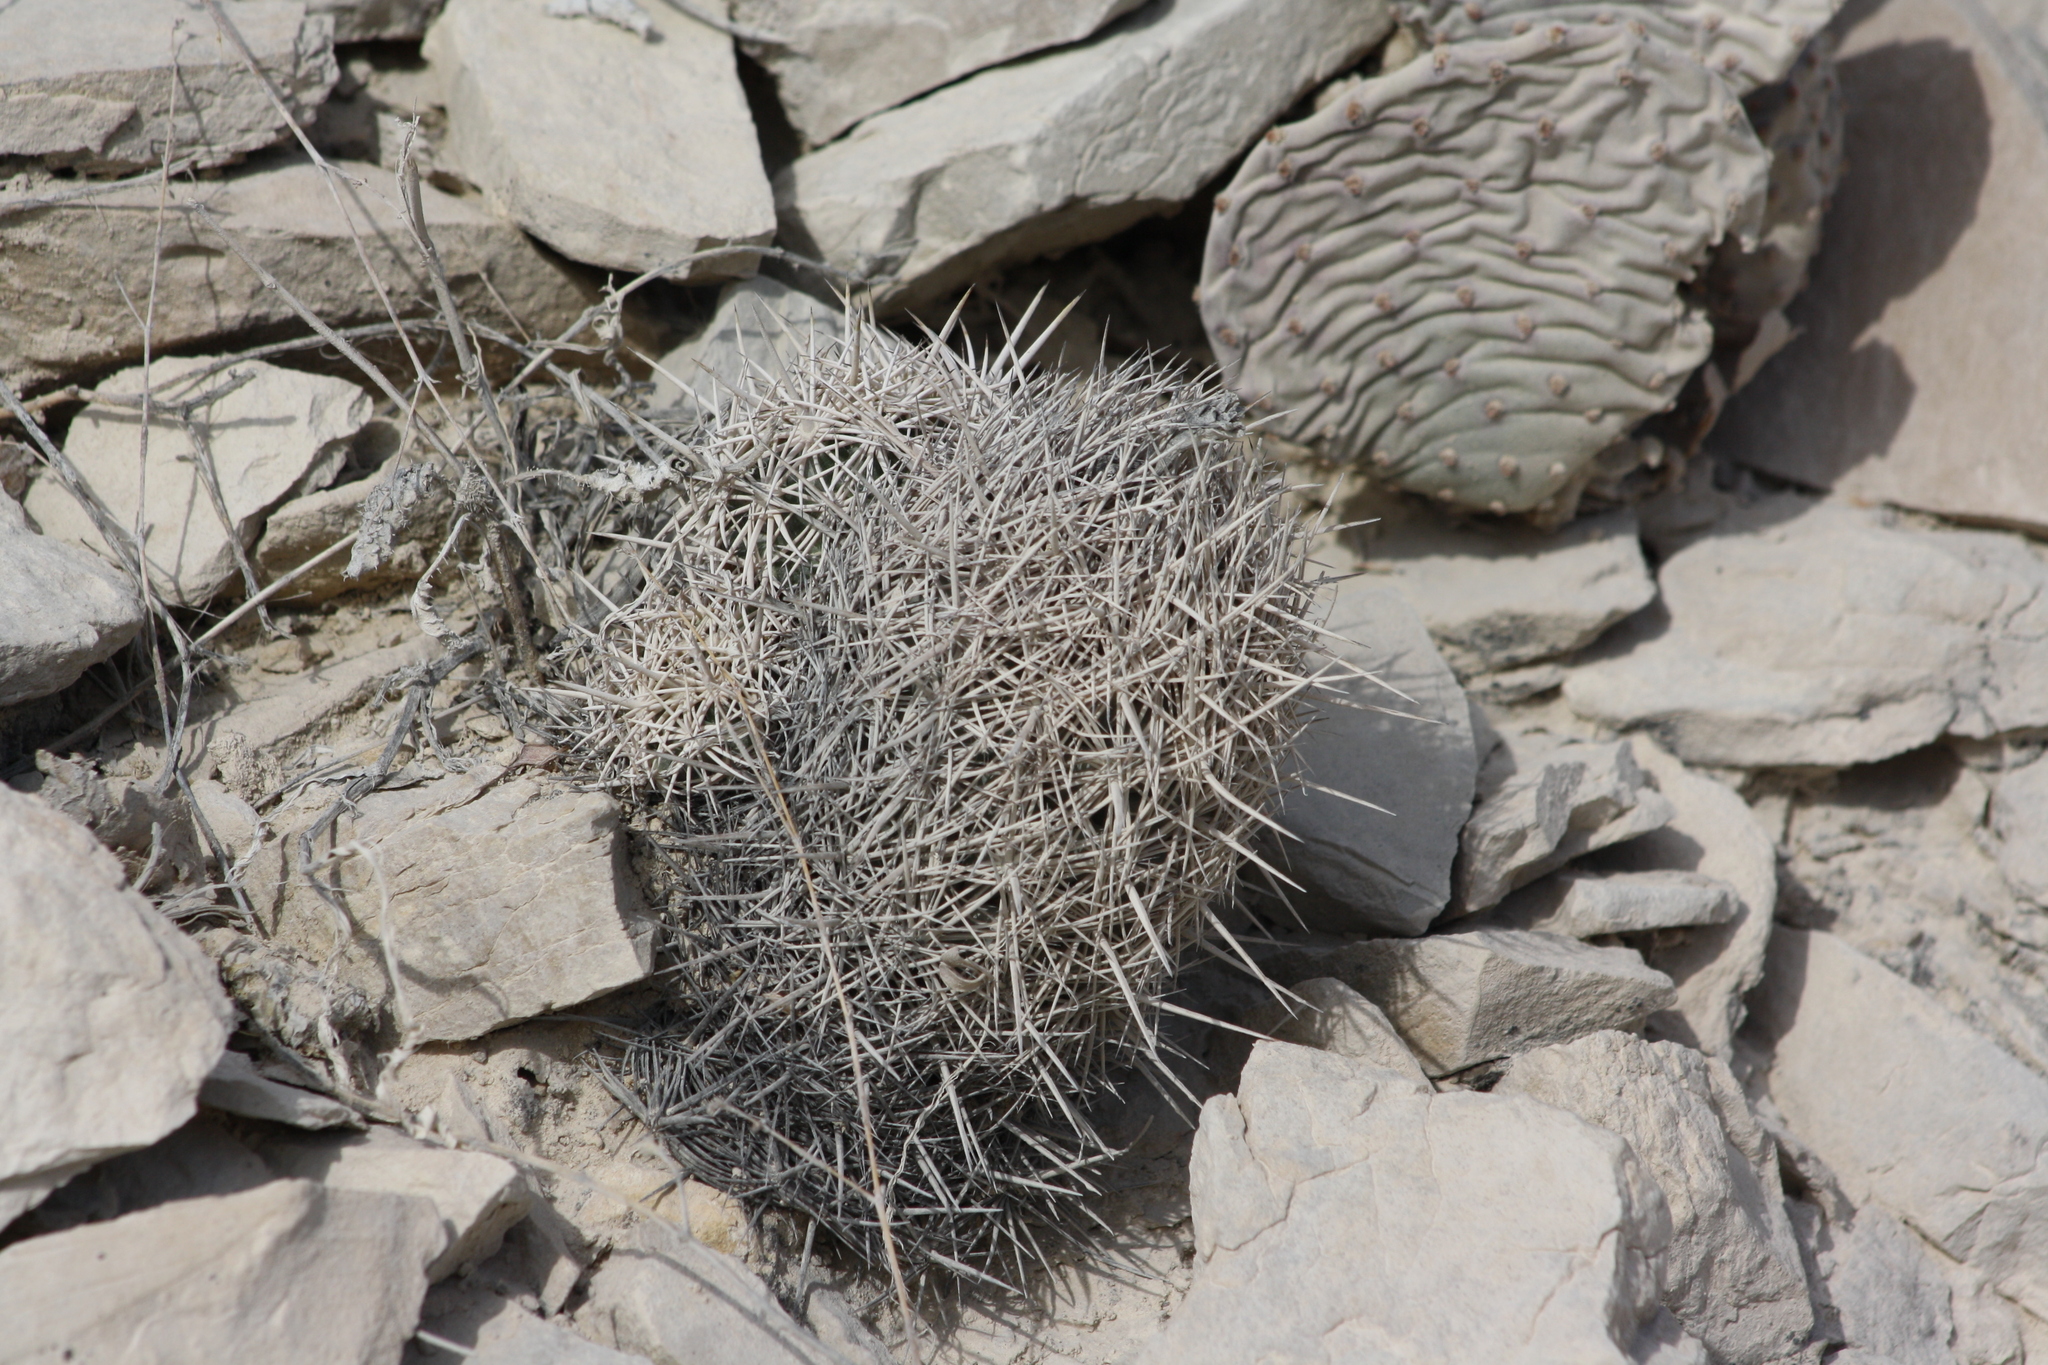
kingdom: Plantae
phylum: Tracheophyta
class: Magnoliopsida
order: Caryophyllales
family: Cactaceae
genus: Coryphantha
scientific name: Coryphantha echinus
